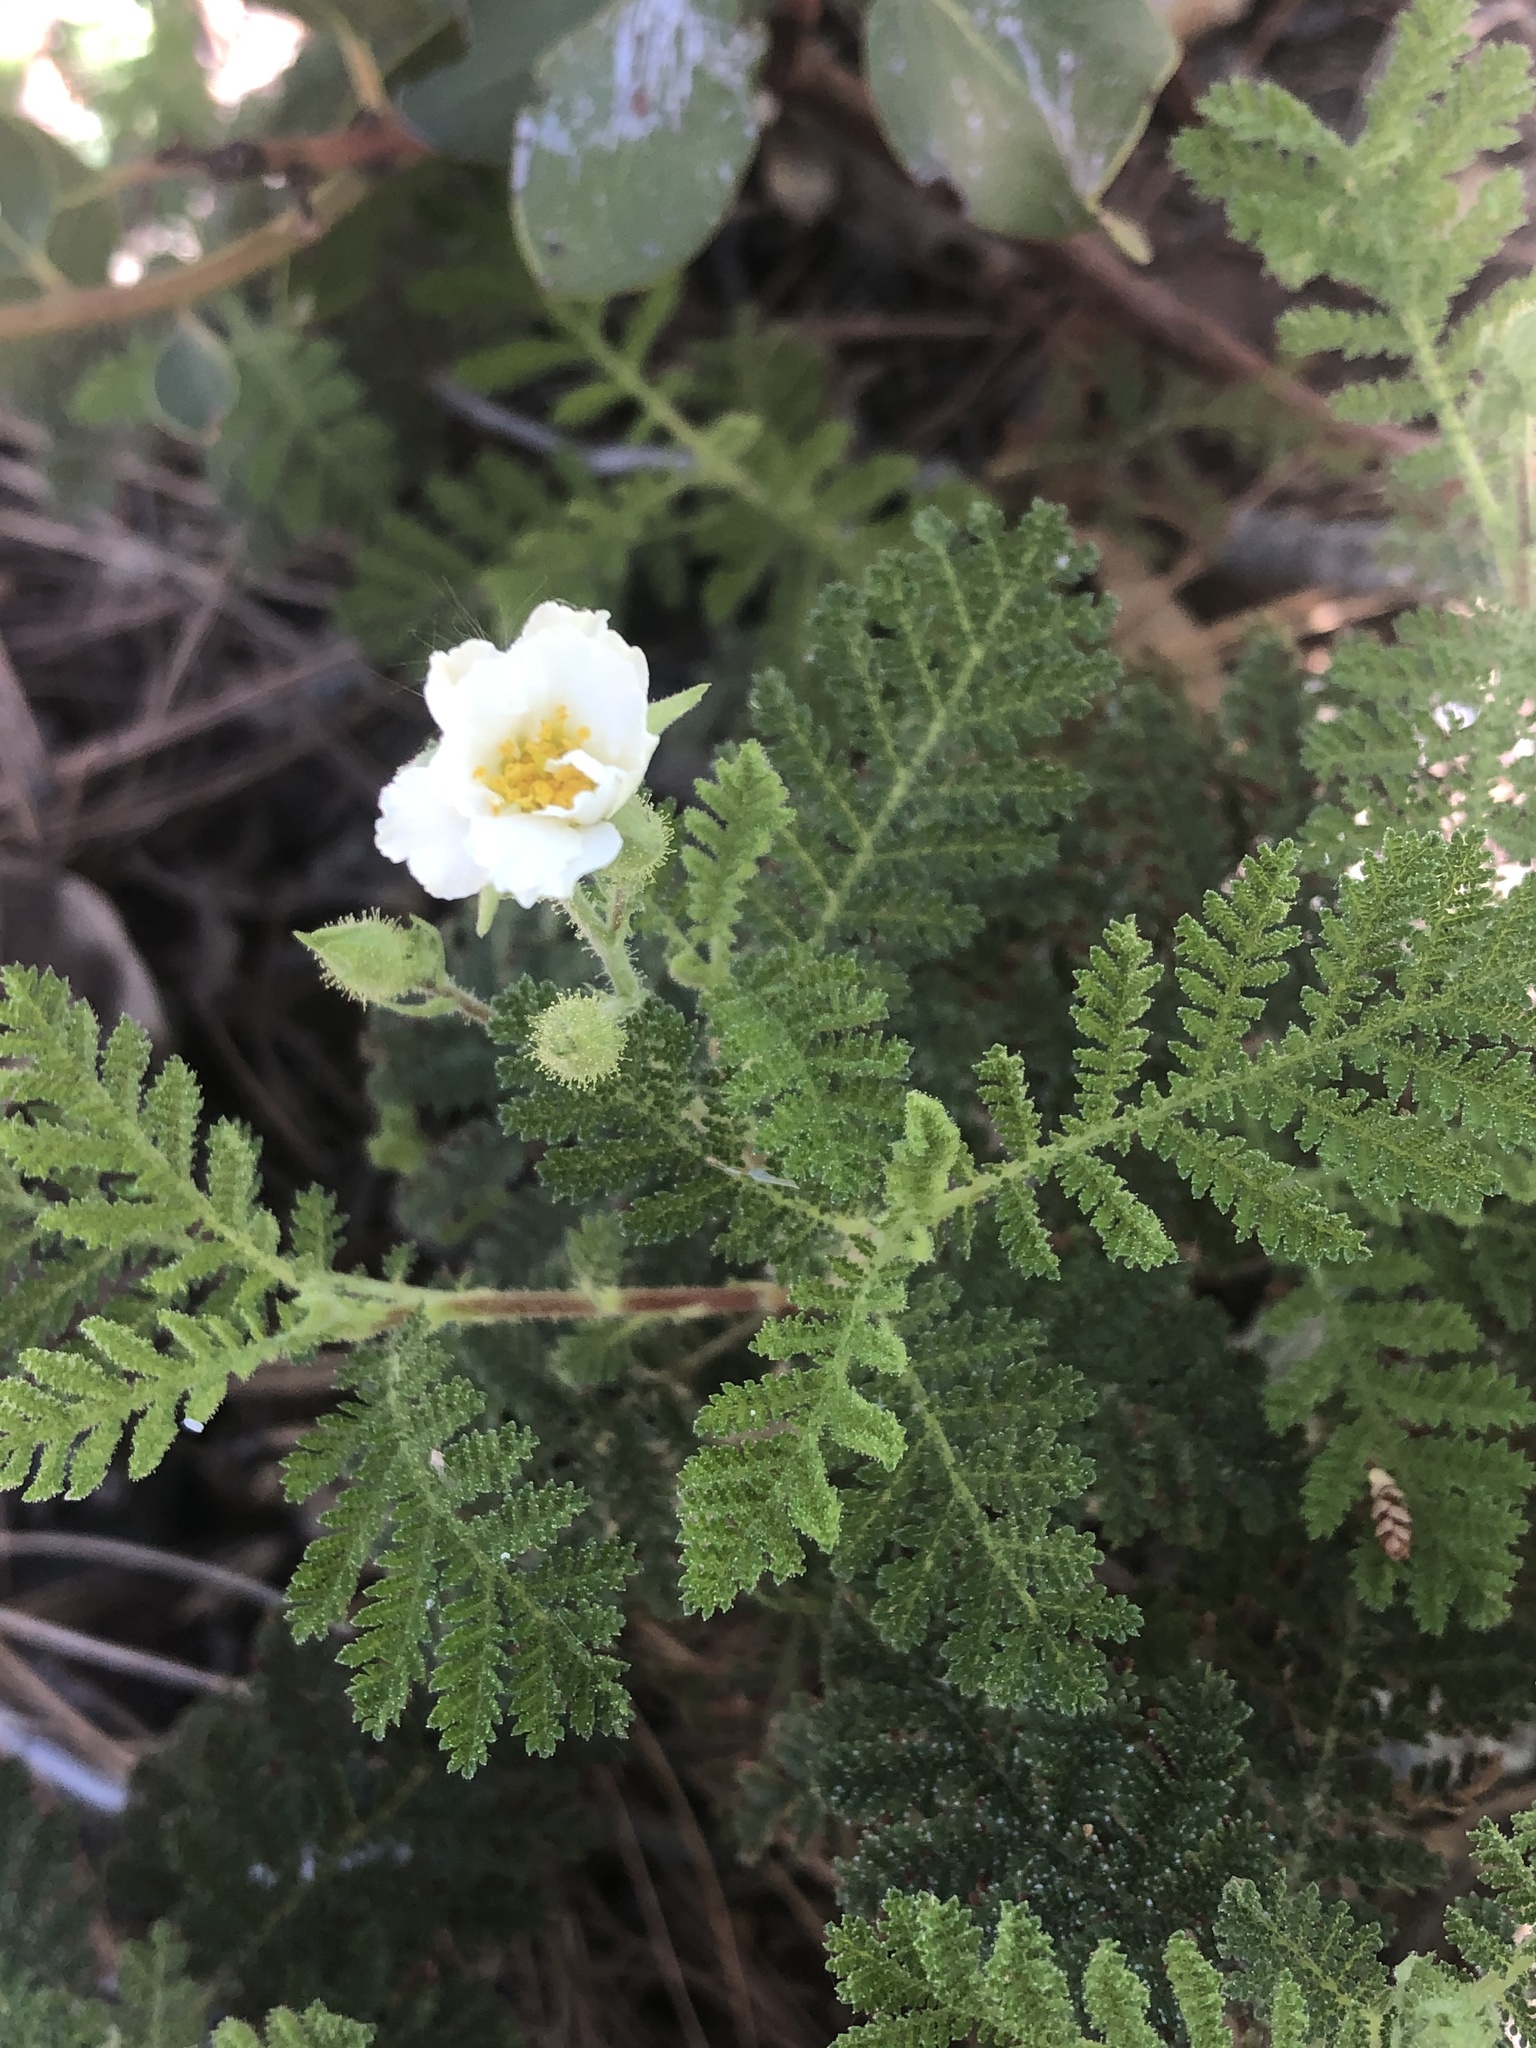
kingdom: Plantae
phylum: Tracheophyta
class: Magnoliopsida
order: Rosales
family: Rosaceae
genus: Chamaebatia
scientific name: Chamaebatia foliolosa
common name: Mountain misery
